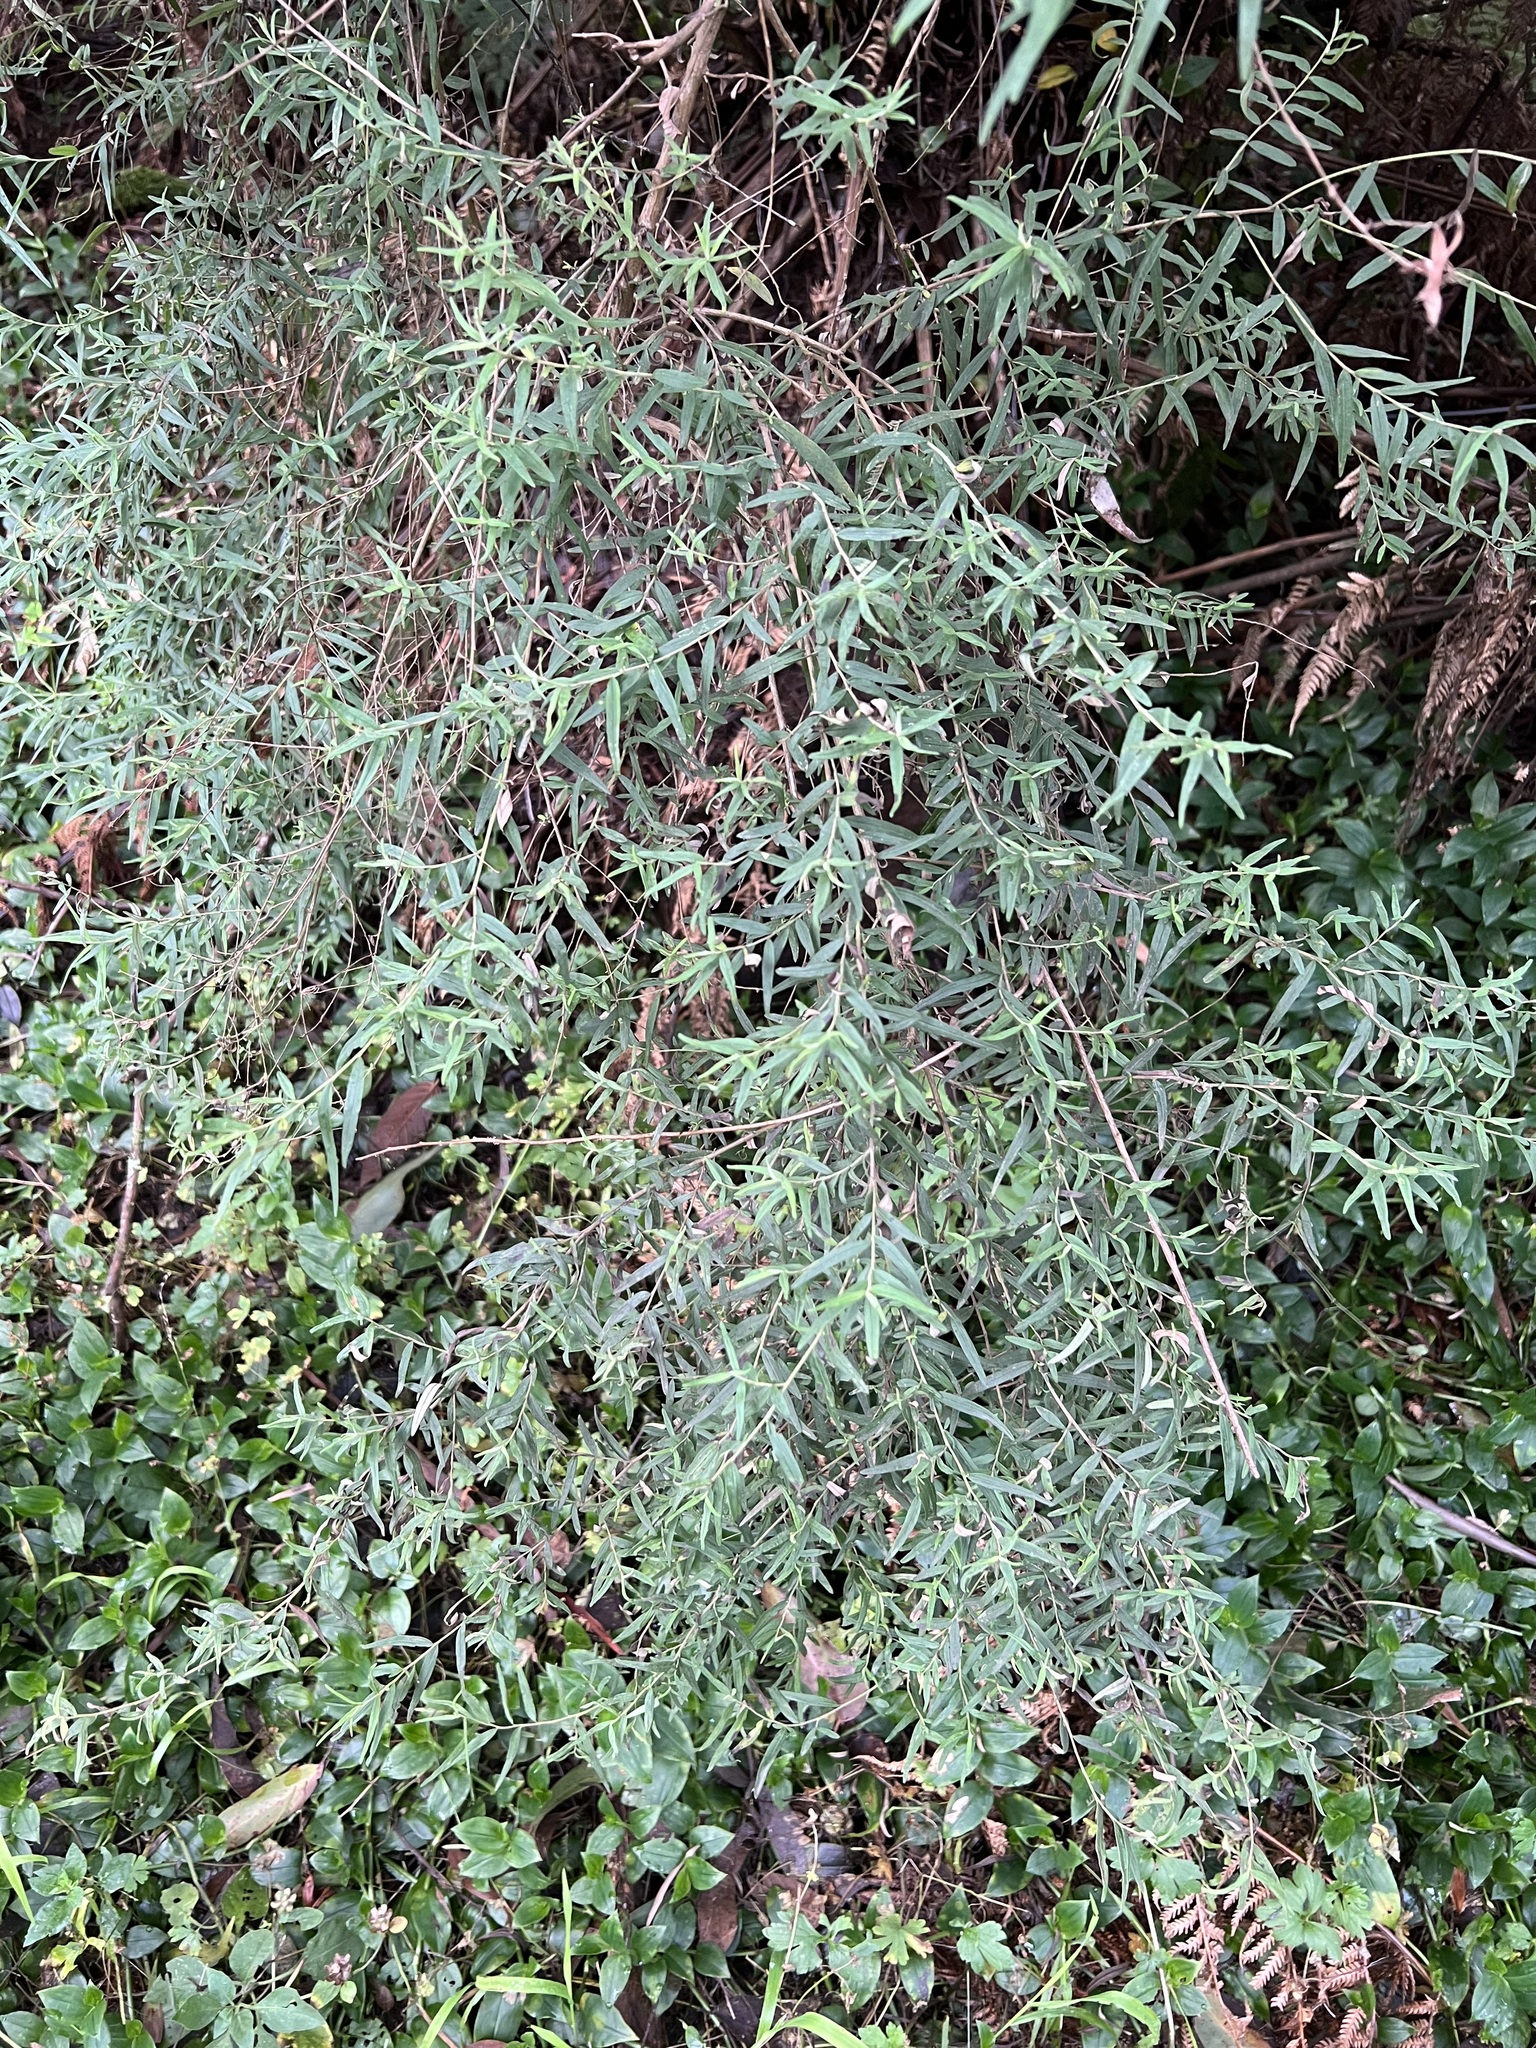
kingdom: Plantae
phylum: Tracheophyta
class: Magnoliopsida
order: Malvales
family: Thymelaeaceae
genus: Pimelea
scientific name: Pimelea axiflora
